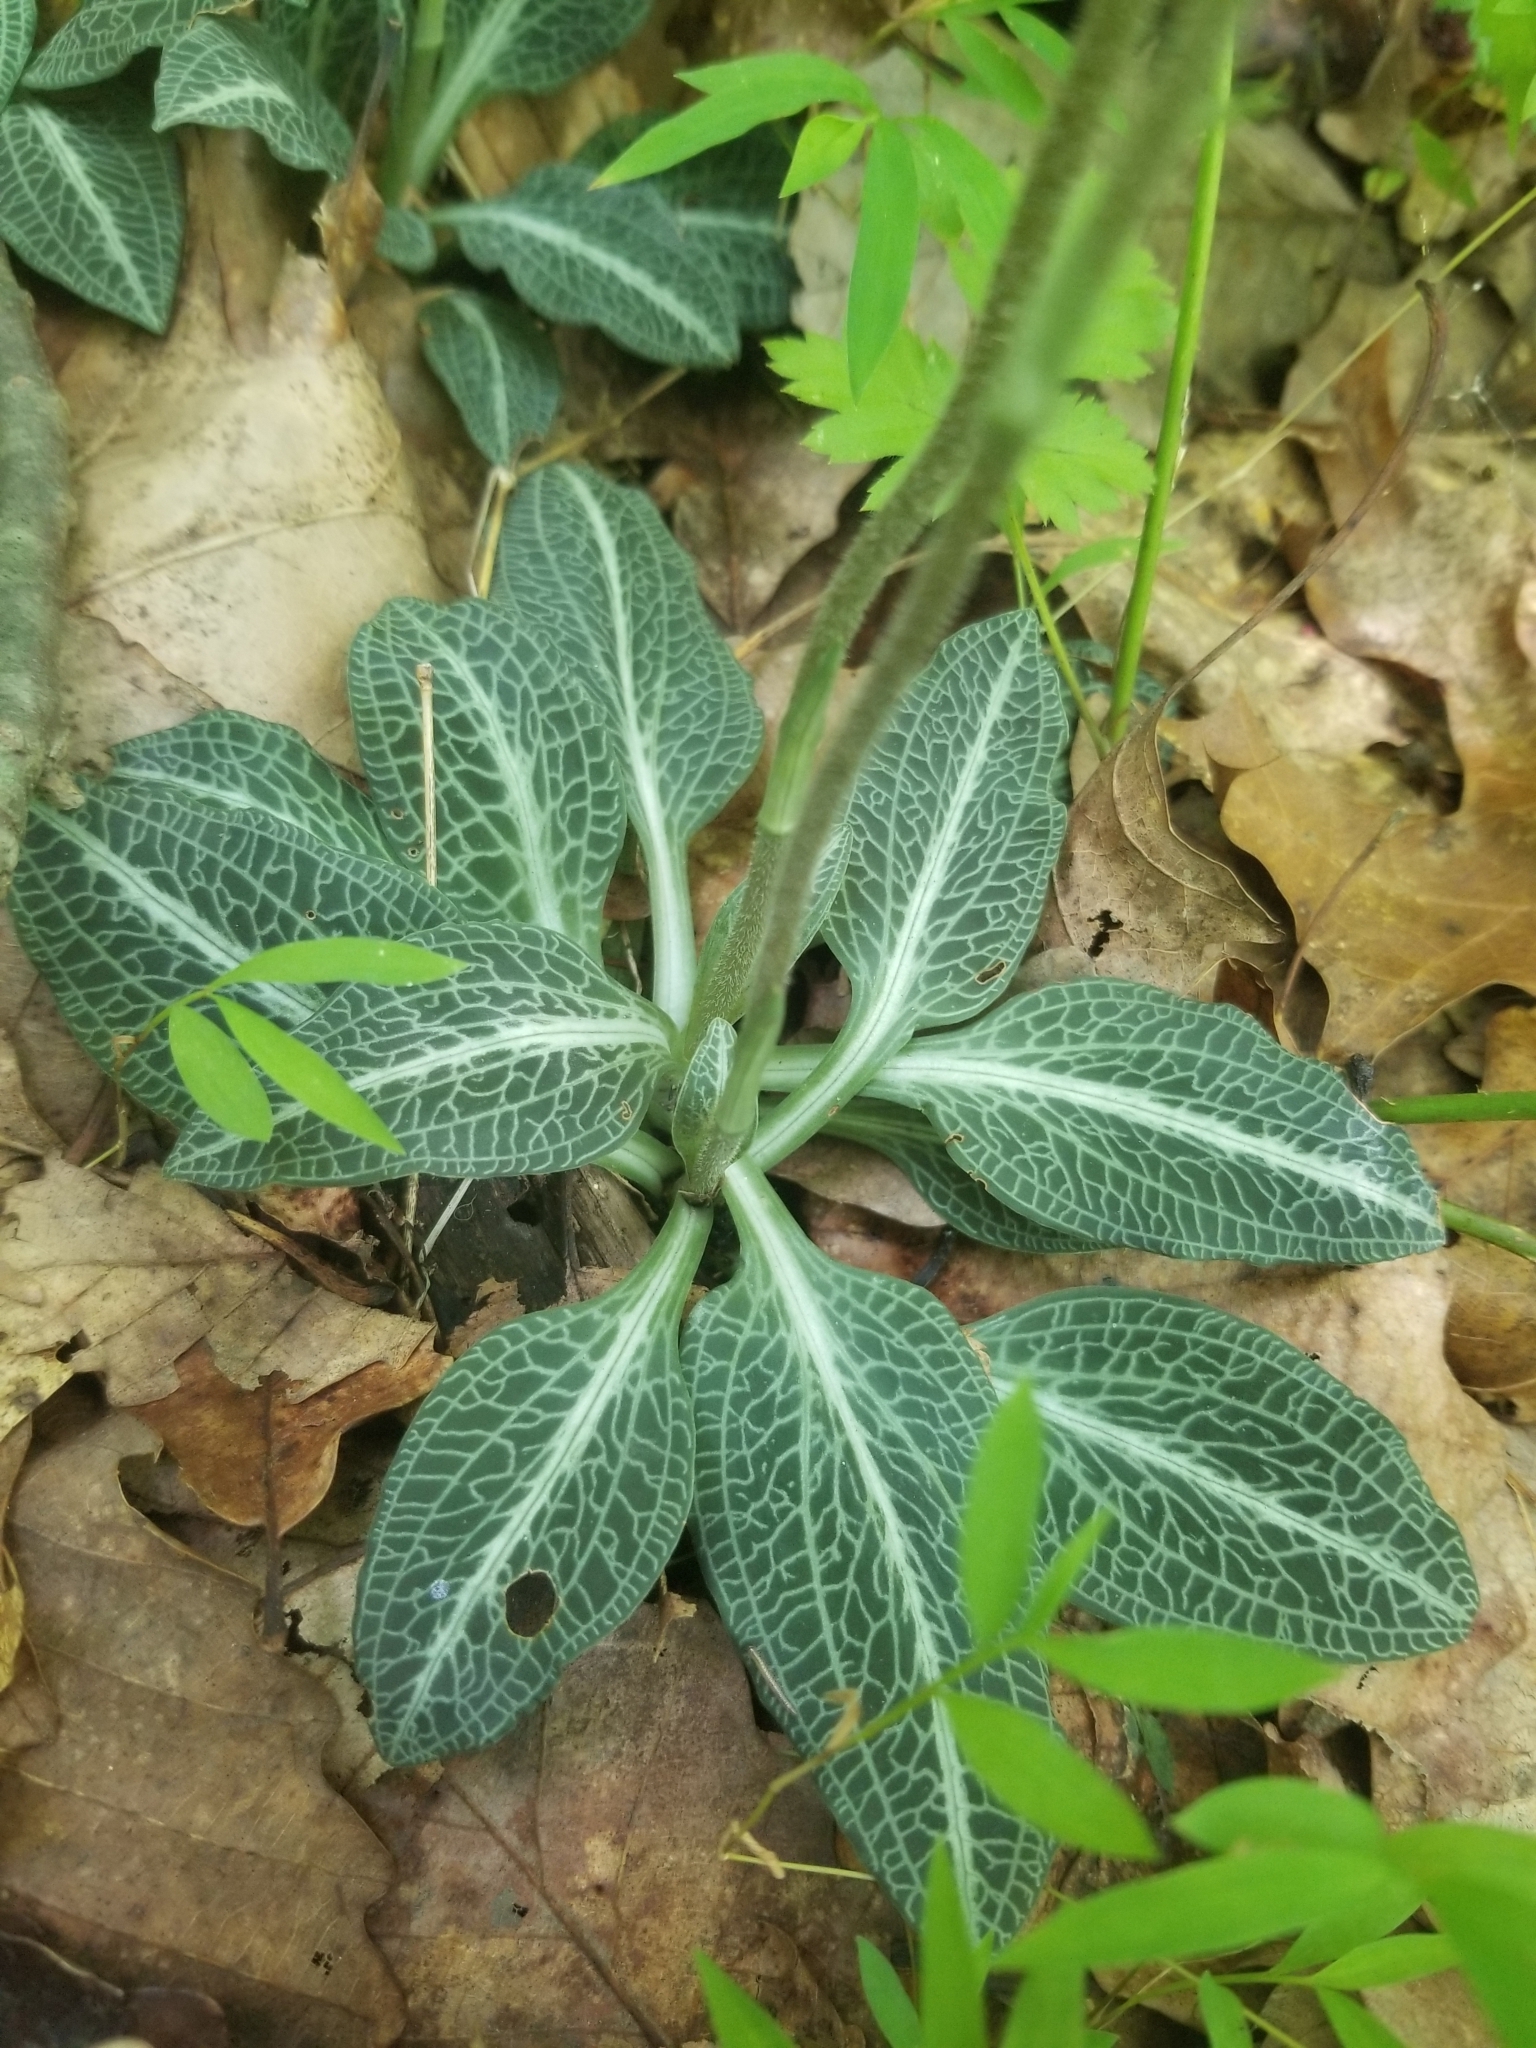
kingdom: Plantae
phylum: Tracheophyta
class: Liliopsida
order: Asparagales
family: Orchidaceae
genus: Goodyera
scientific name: Goodyera pubescens
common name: Downy rattlesnake-plantain
